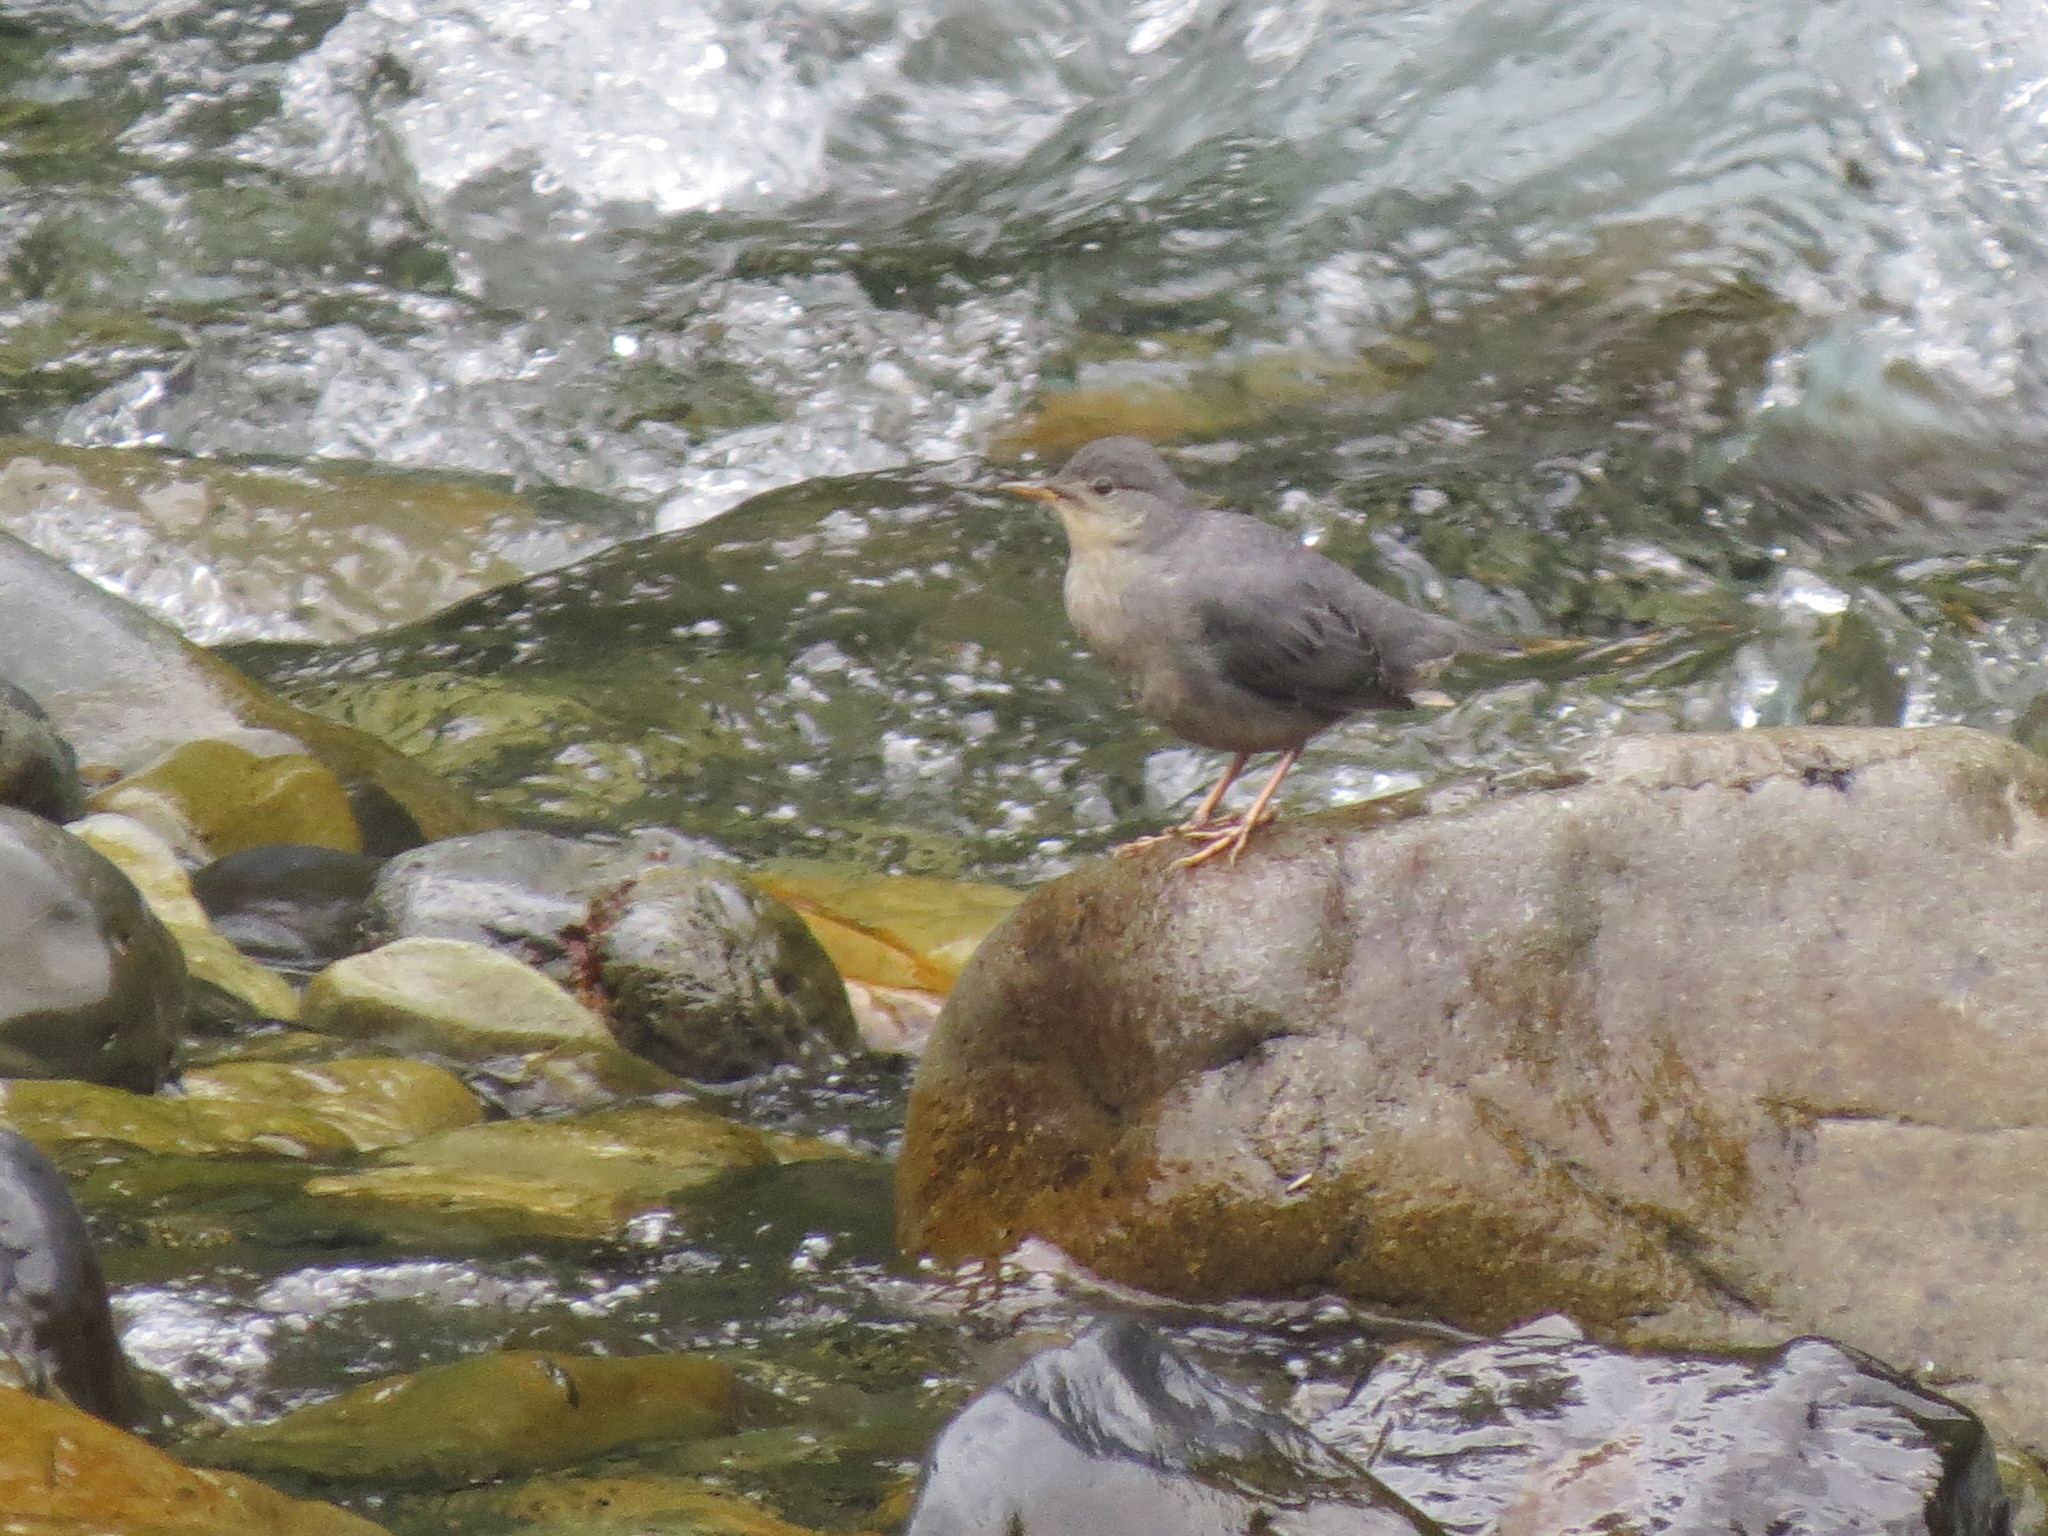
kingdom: Animalia
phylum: Chordata
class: Aves
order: Passeriformes
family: Cinclidae
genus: Cinclus
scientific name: Cinclus mexicanus
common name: American dipper
